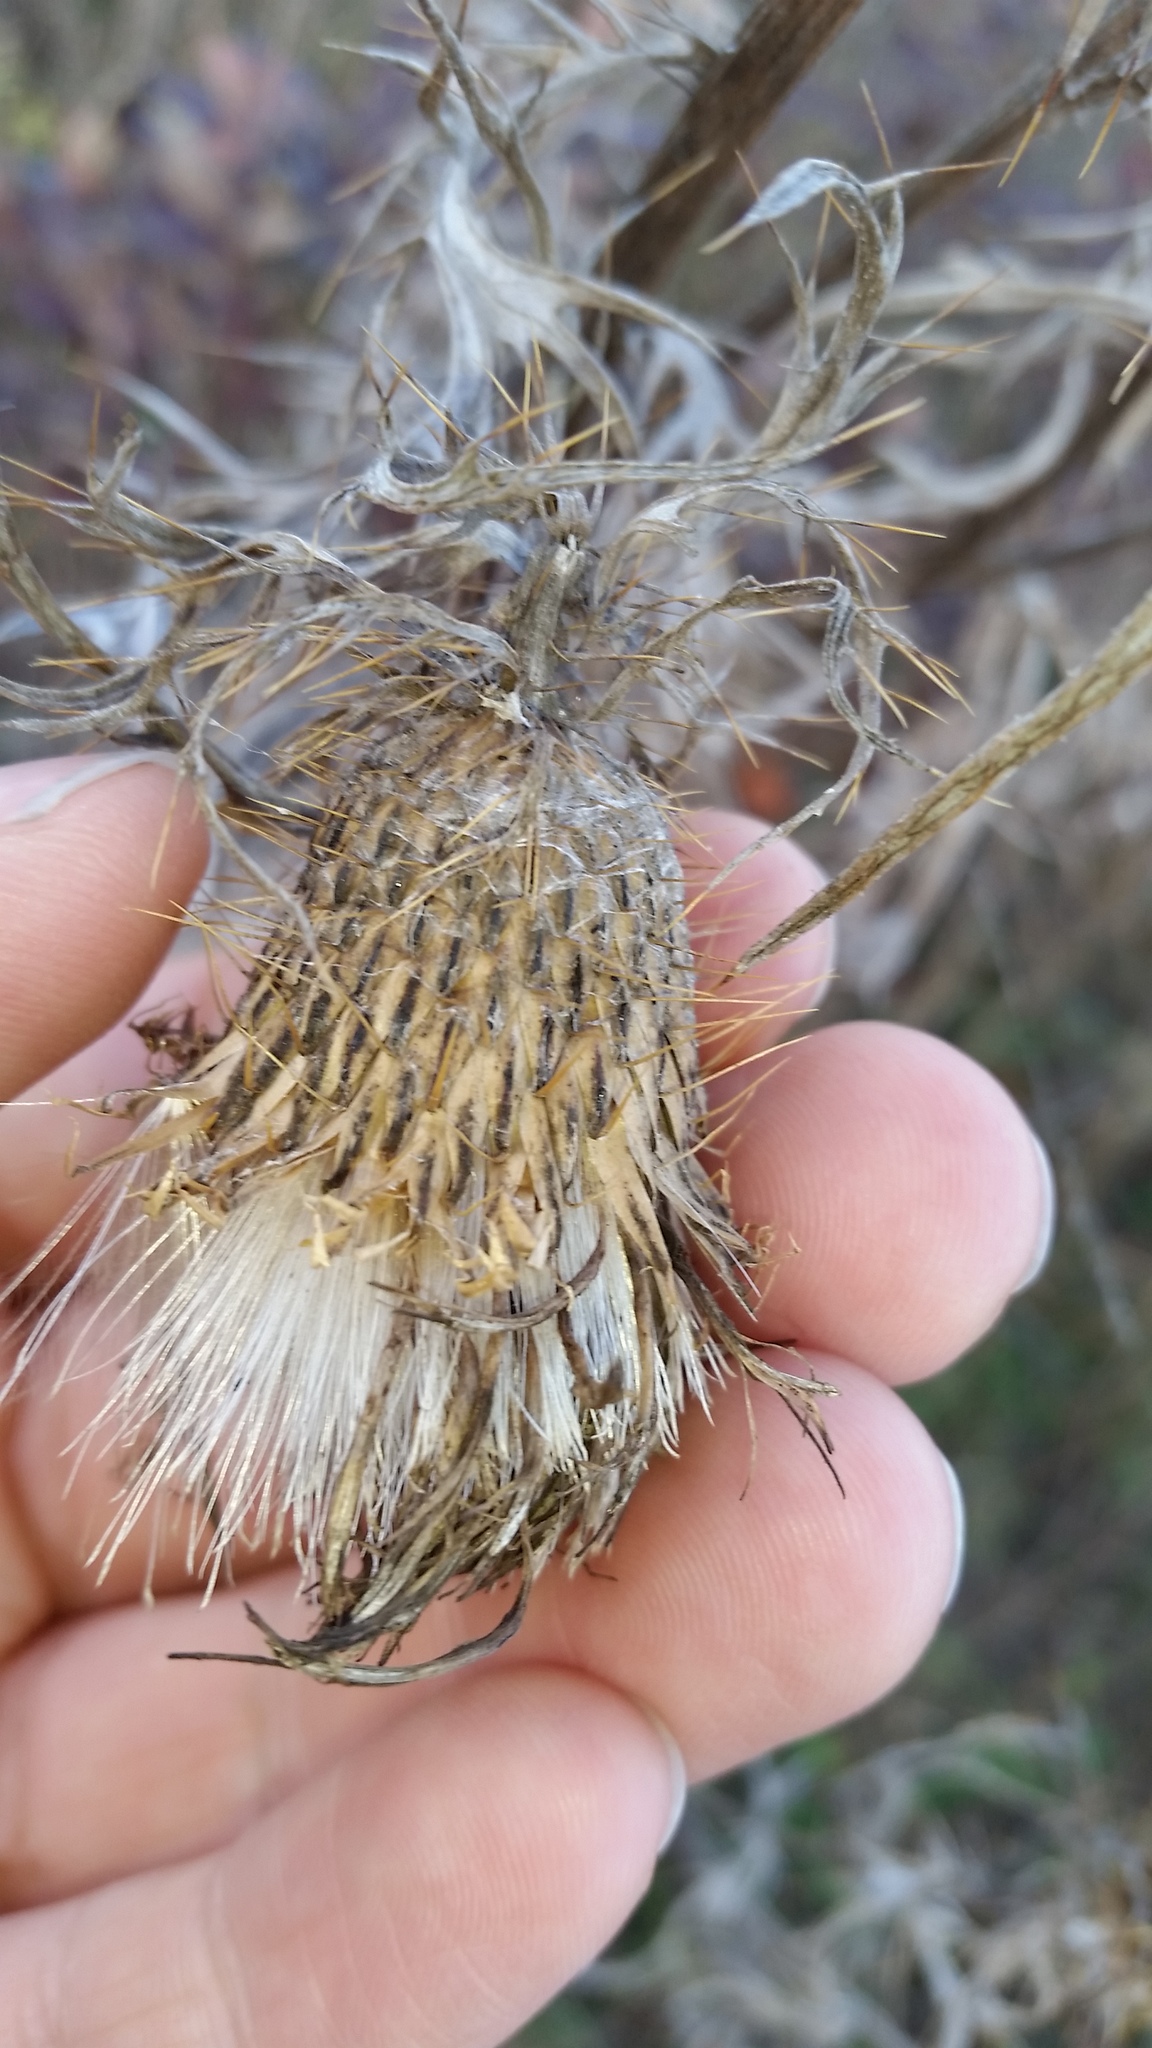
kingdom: Plantae
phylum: Tracheophyta
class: Magnoliopsida
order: Asterales
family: Asteraceae
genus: Cirsium
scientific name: Cirsium discolor
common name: Field thistle
